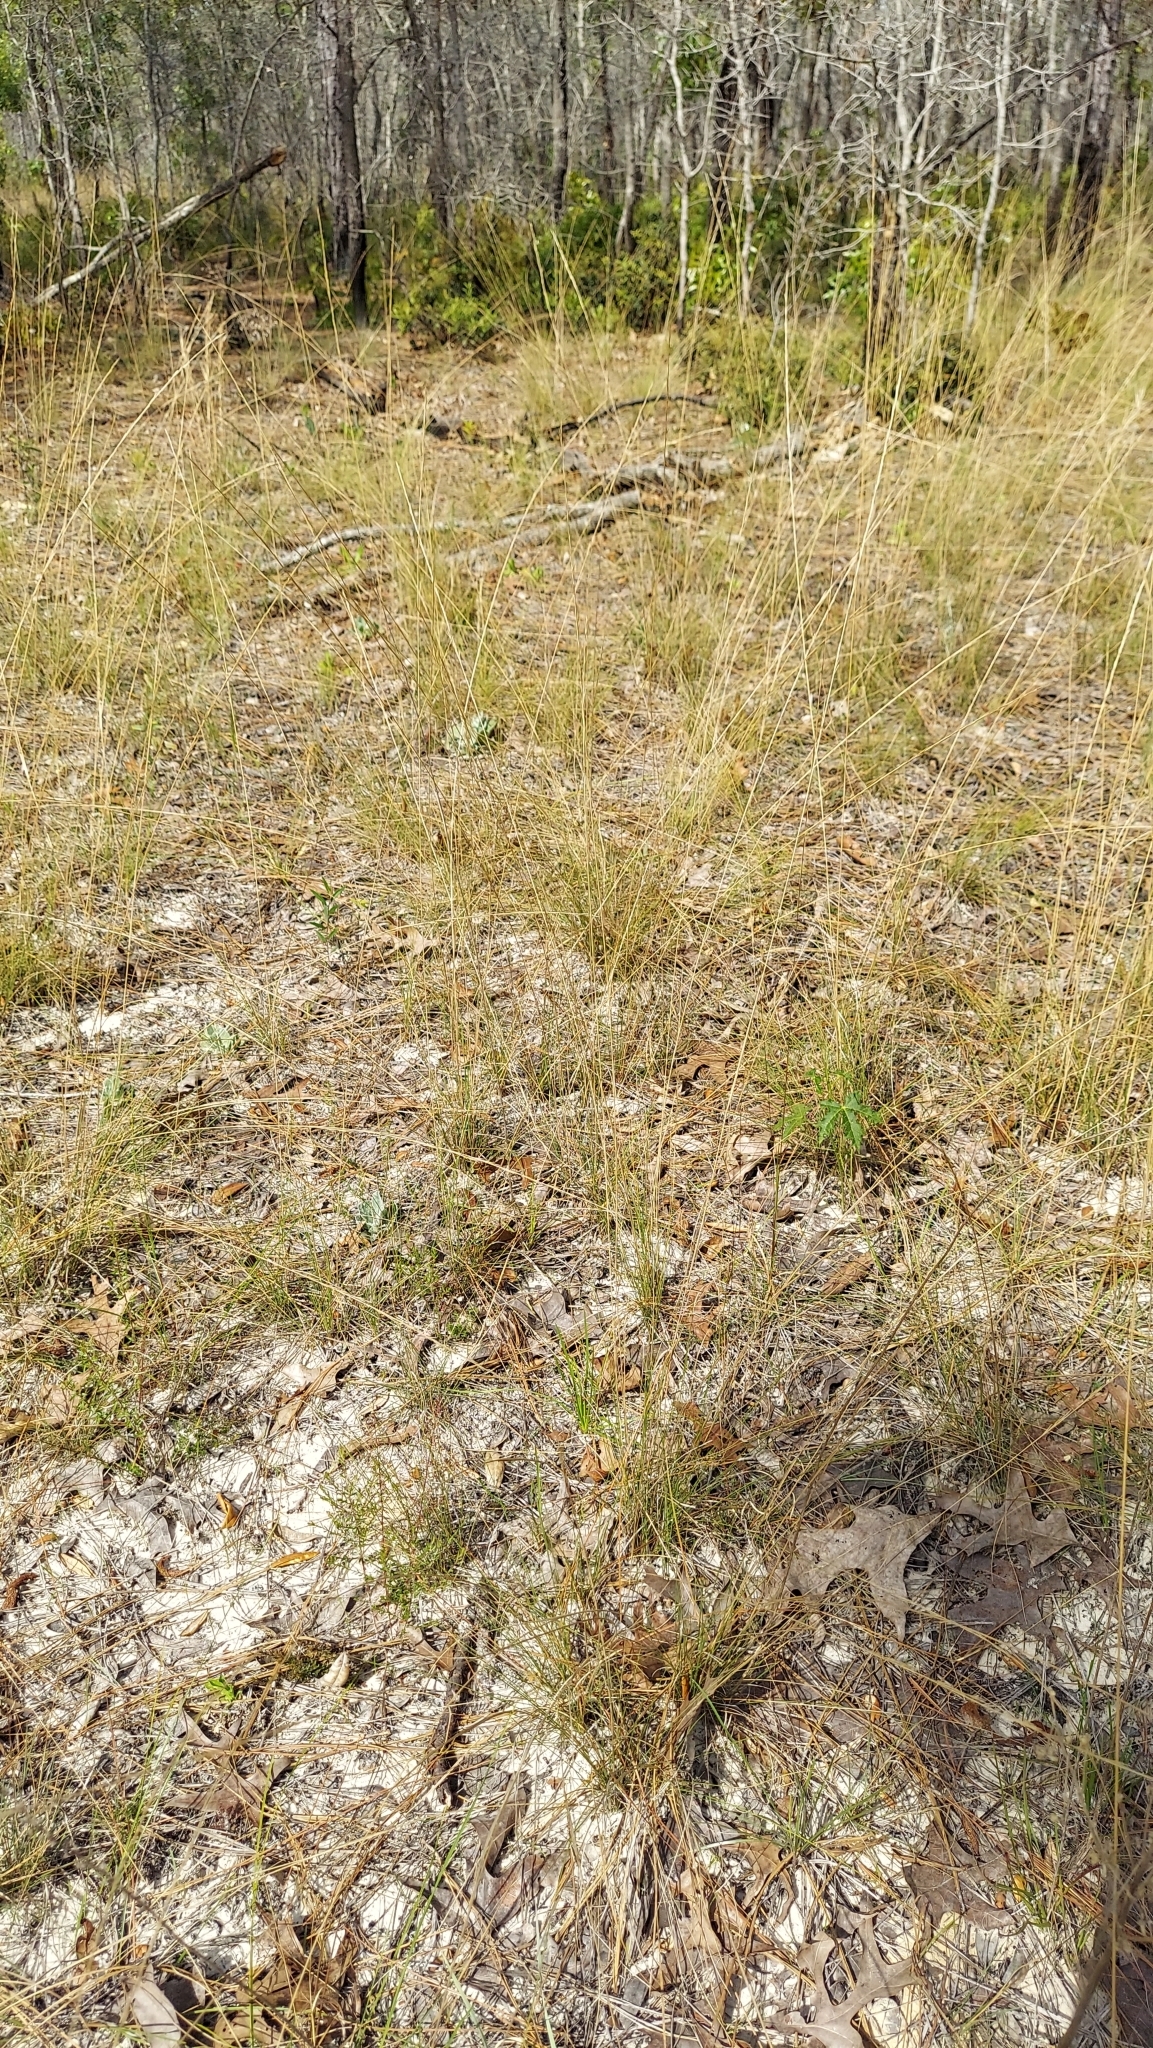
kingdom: Plantae
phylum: Tracheophyta
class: Liliopsida
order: Poales
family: Poaceae
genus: Aristida
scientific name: Aristida beyrichiana
